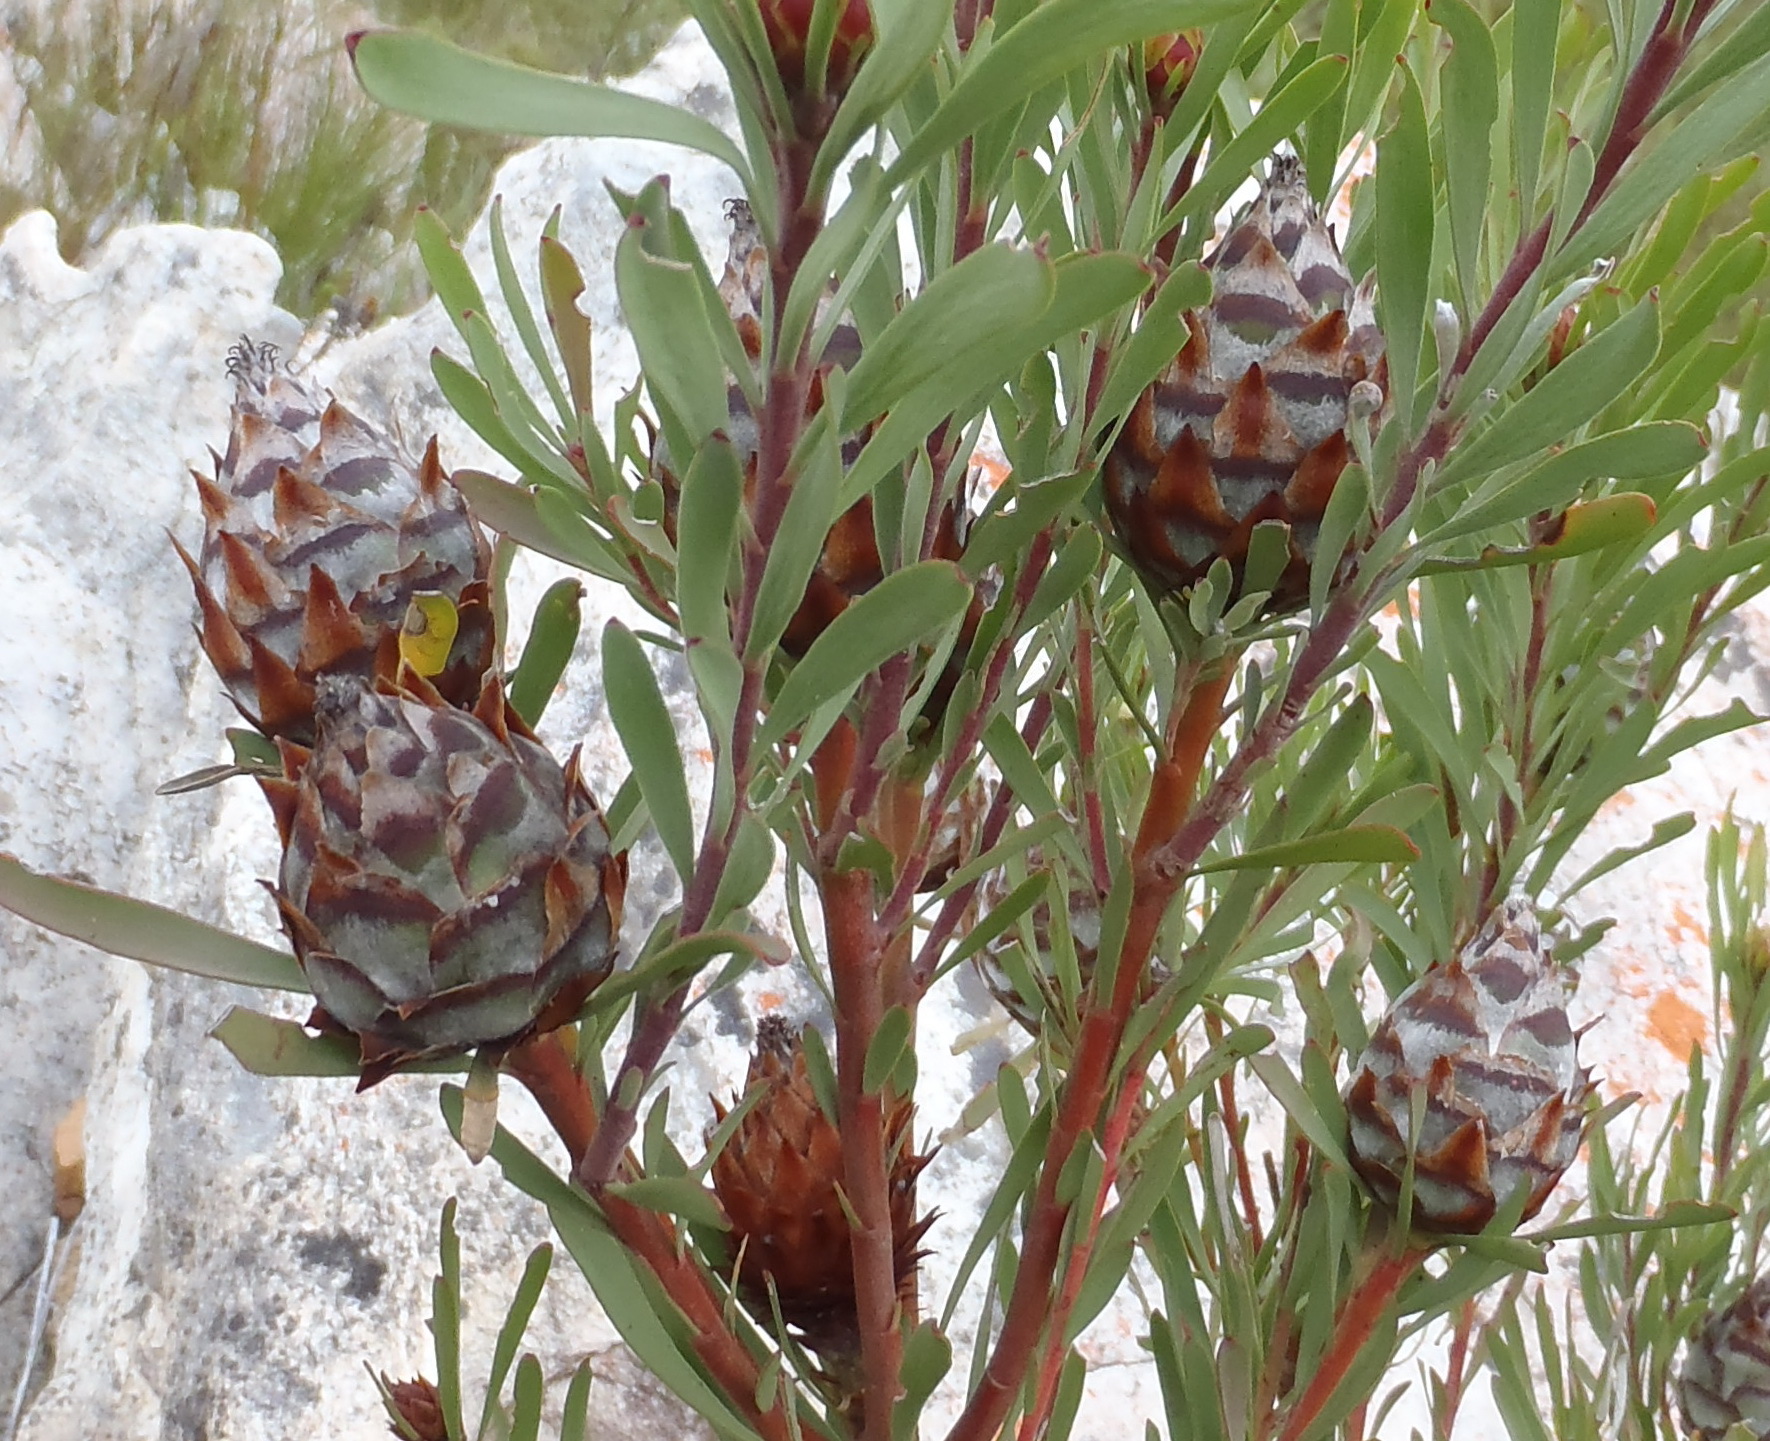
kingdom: Plantae
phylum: Tracheophyta
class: Magnoliopsida
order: Proteales
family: Proteaceae
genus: Leucadendron
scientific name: Leucadendron rubrum
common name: Spinning top
